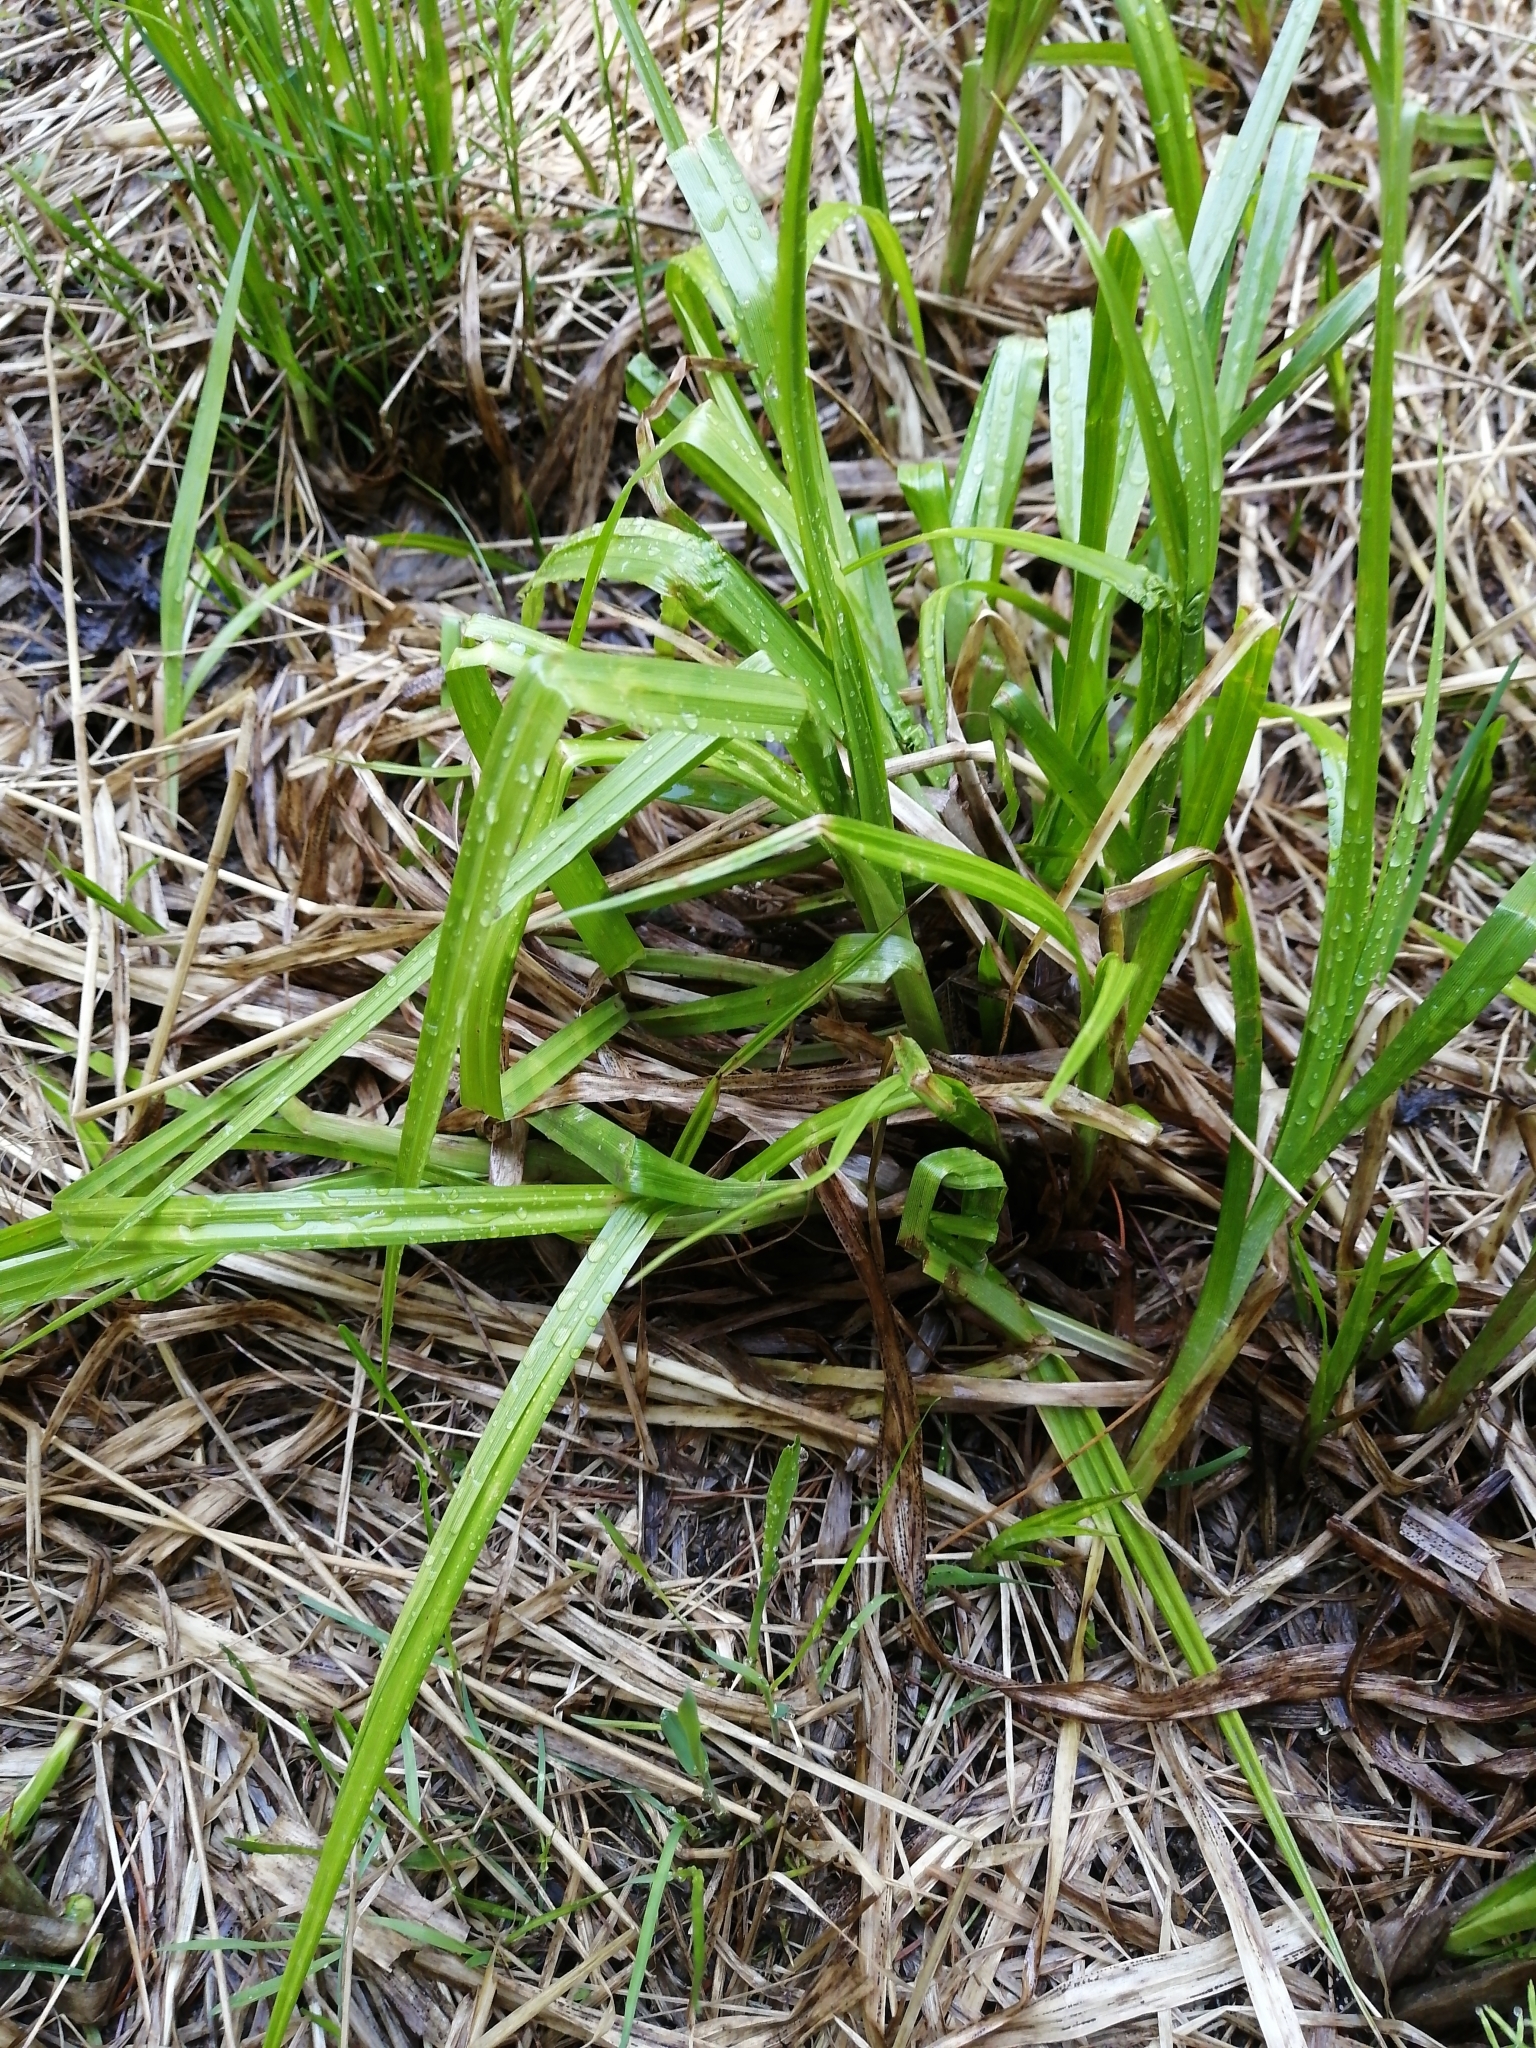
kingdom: Plantae
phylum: Tracheophyta
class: Liliopsida
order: Poales
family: Cyperaceae
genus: Scirpus
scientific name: Scirpus sylvaticus
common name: Wood club-rush
